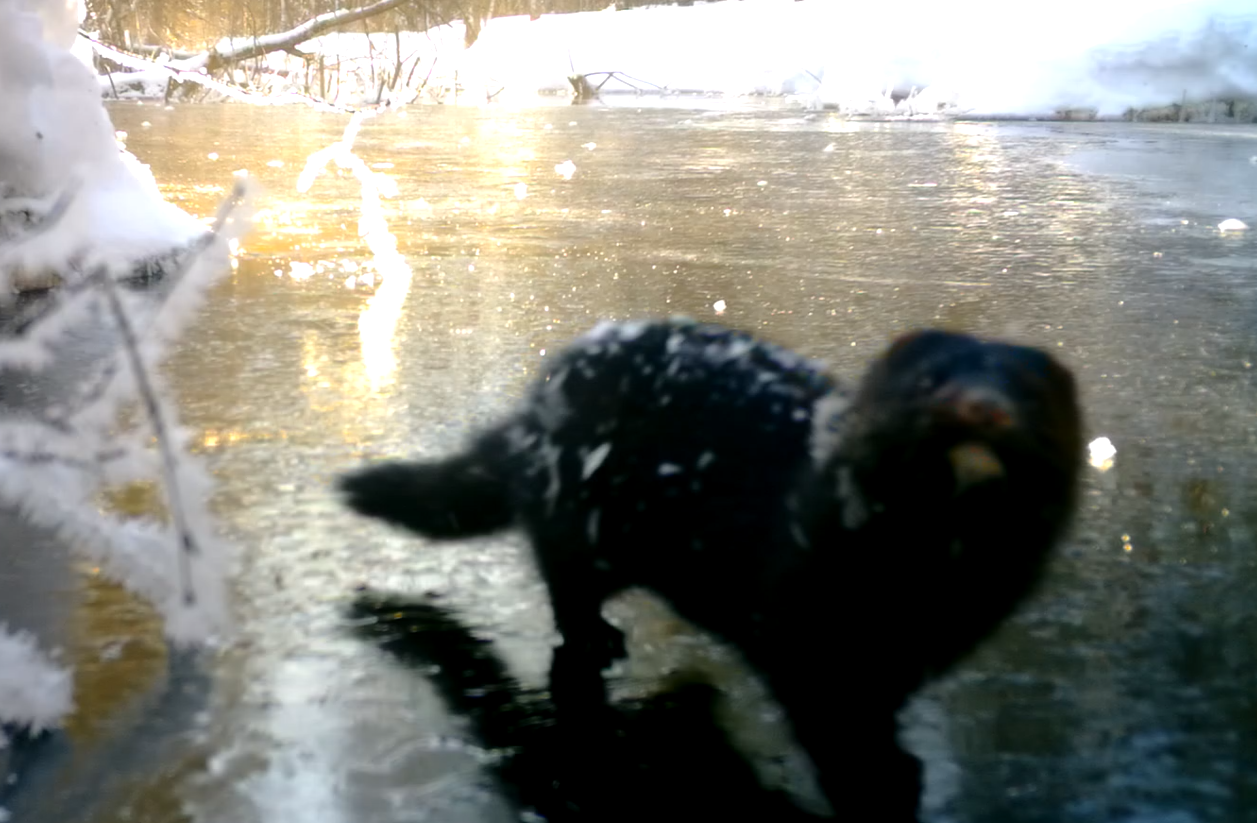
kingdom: Animalia
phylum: Chordata
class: Mammalia
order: Carnivora
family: Mustelidae
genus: Mustela
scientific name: Mustela
